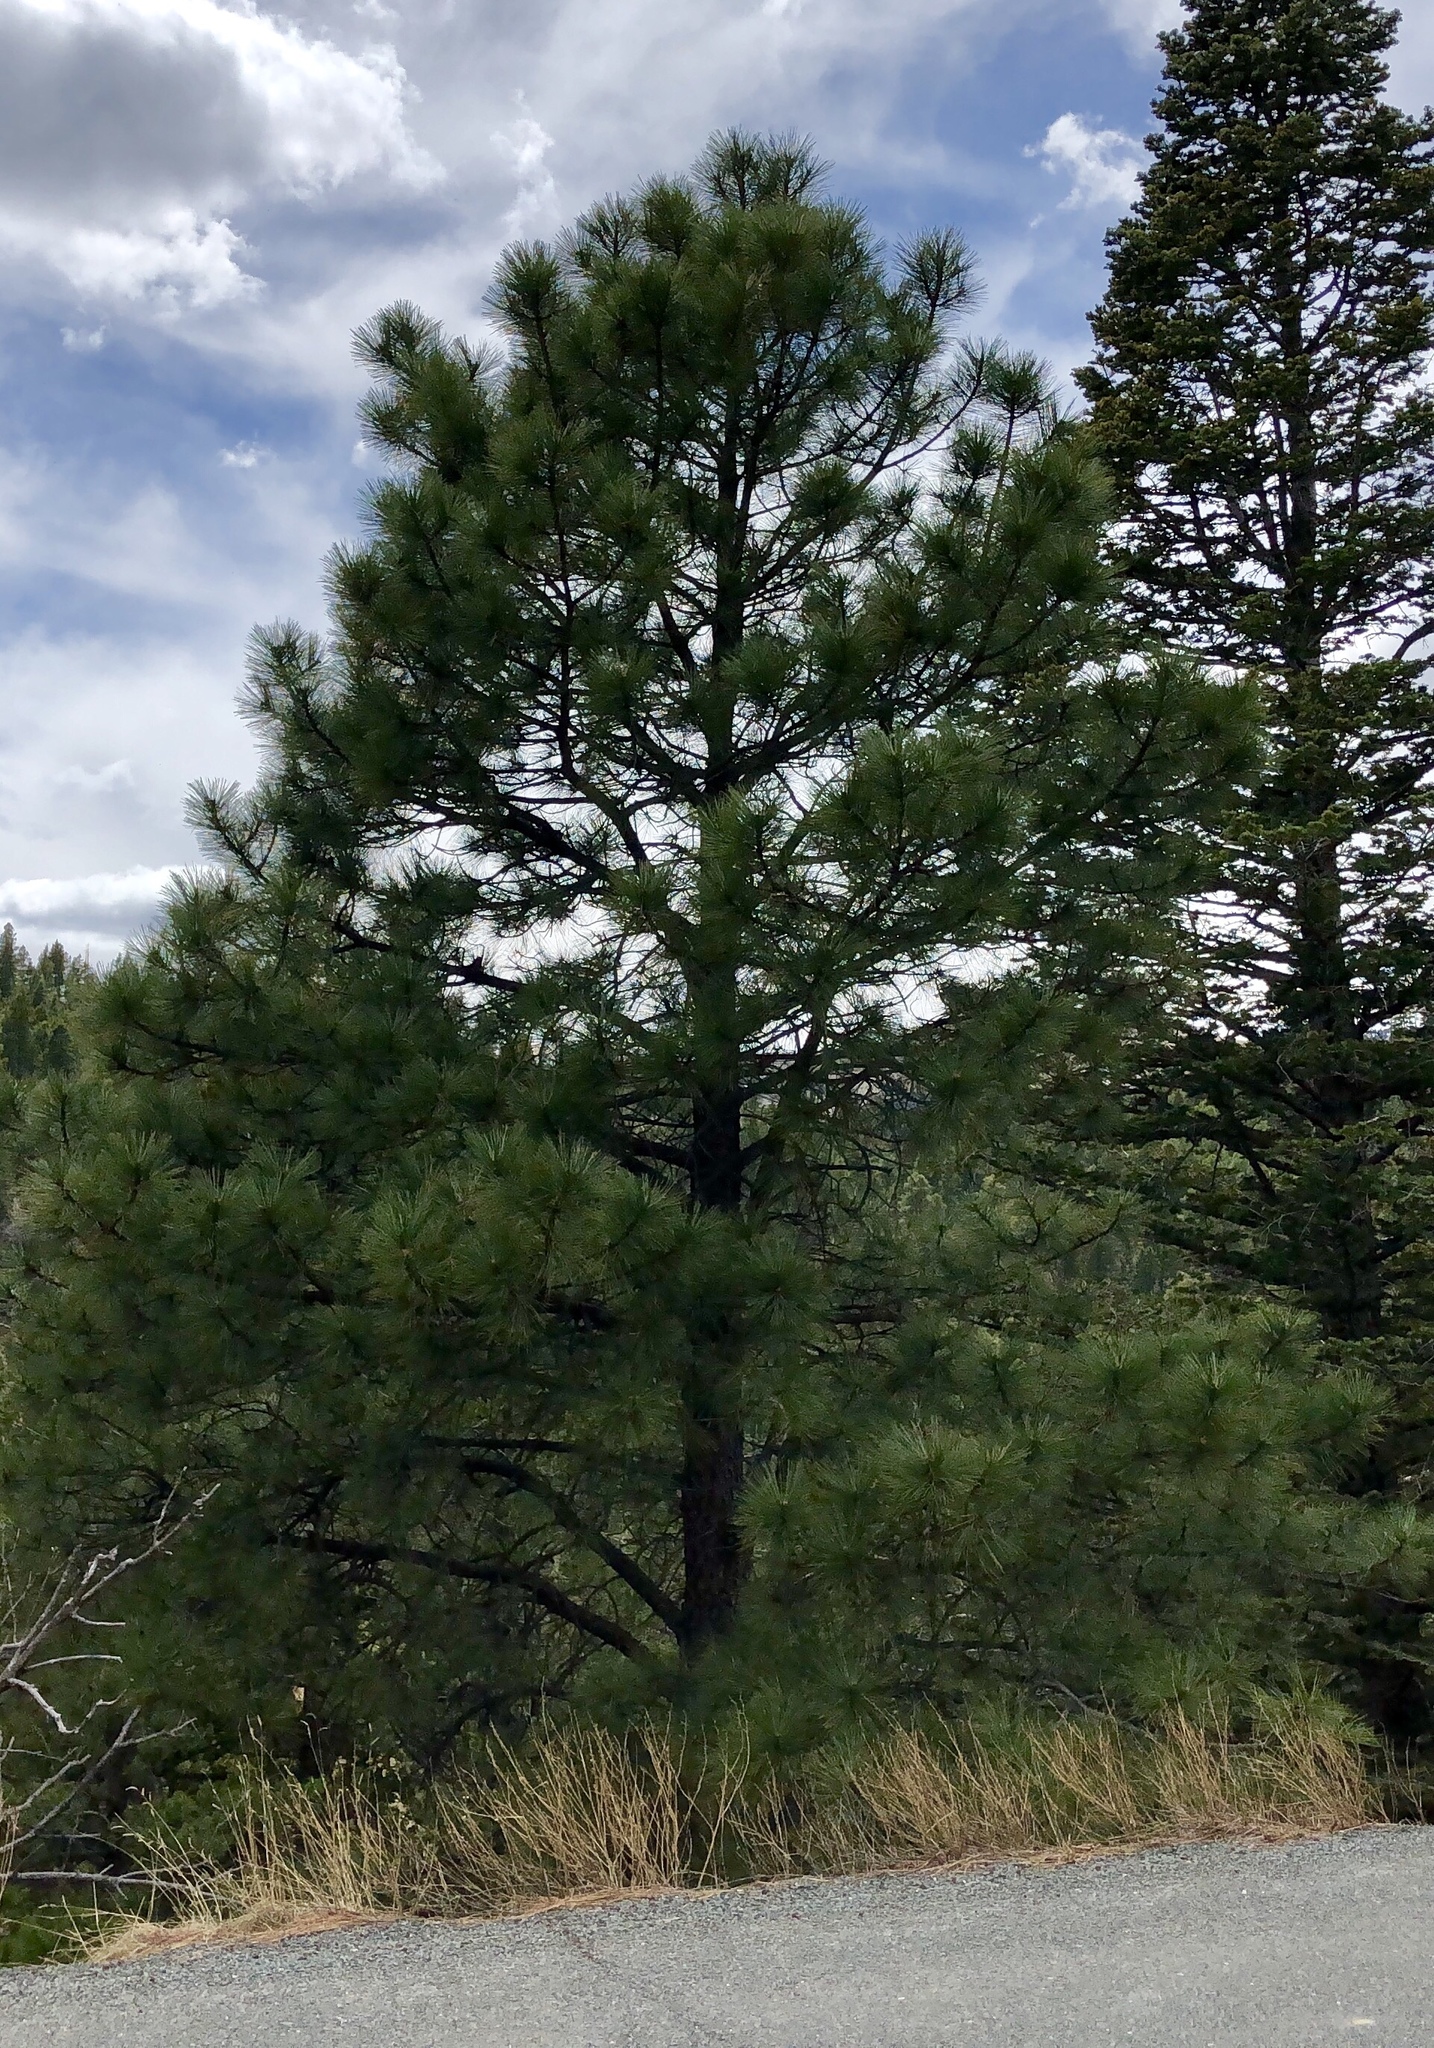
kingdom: Plantae
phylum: Tracheophyta
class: Pinopsida
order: Pinales
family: Pinaceae
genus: Pinus
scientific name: Pinus ponderosa
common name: Western yellow-pine
